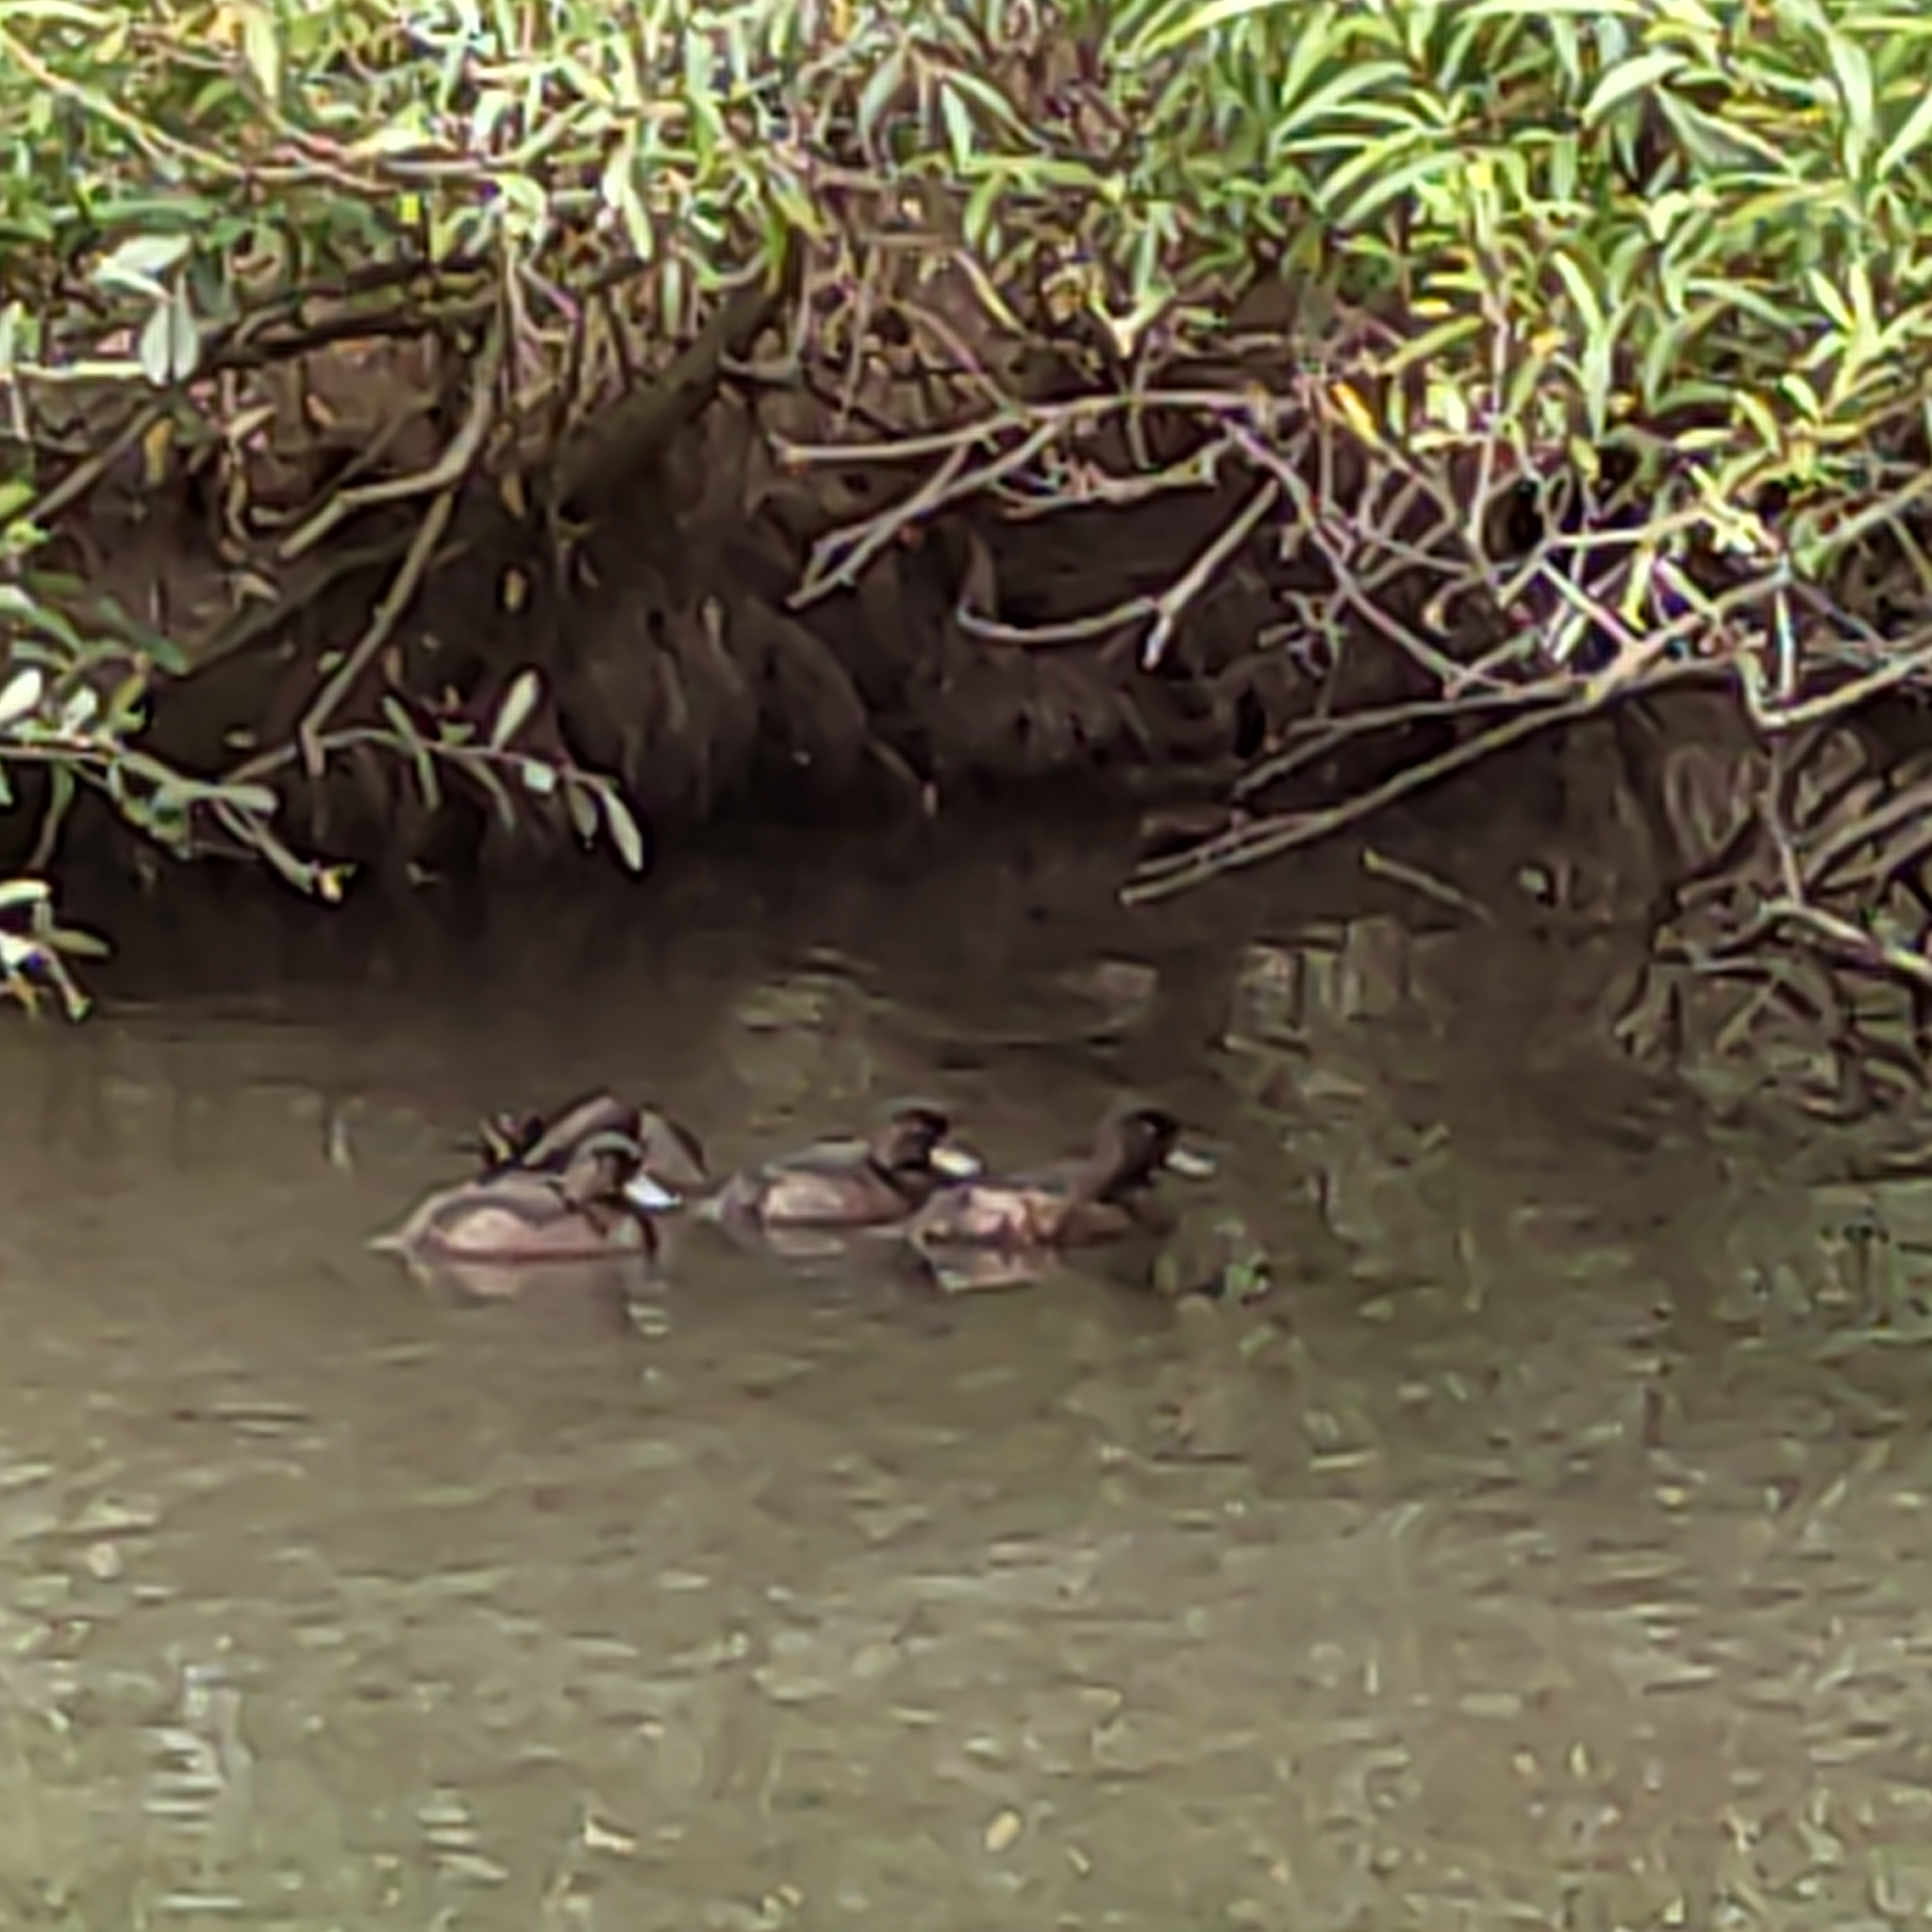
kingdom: Animalia
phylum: Chordata
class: Aves
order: Anseriformes
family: Anatidae
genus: Aythya
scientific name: Aythya novaeseelandiae
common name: New zealand scaup
